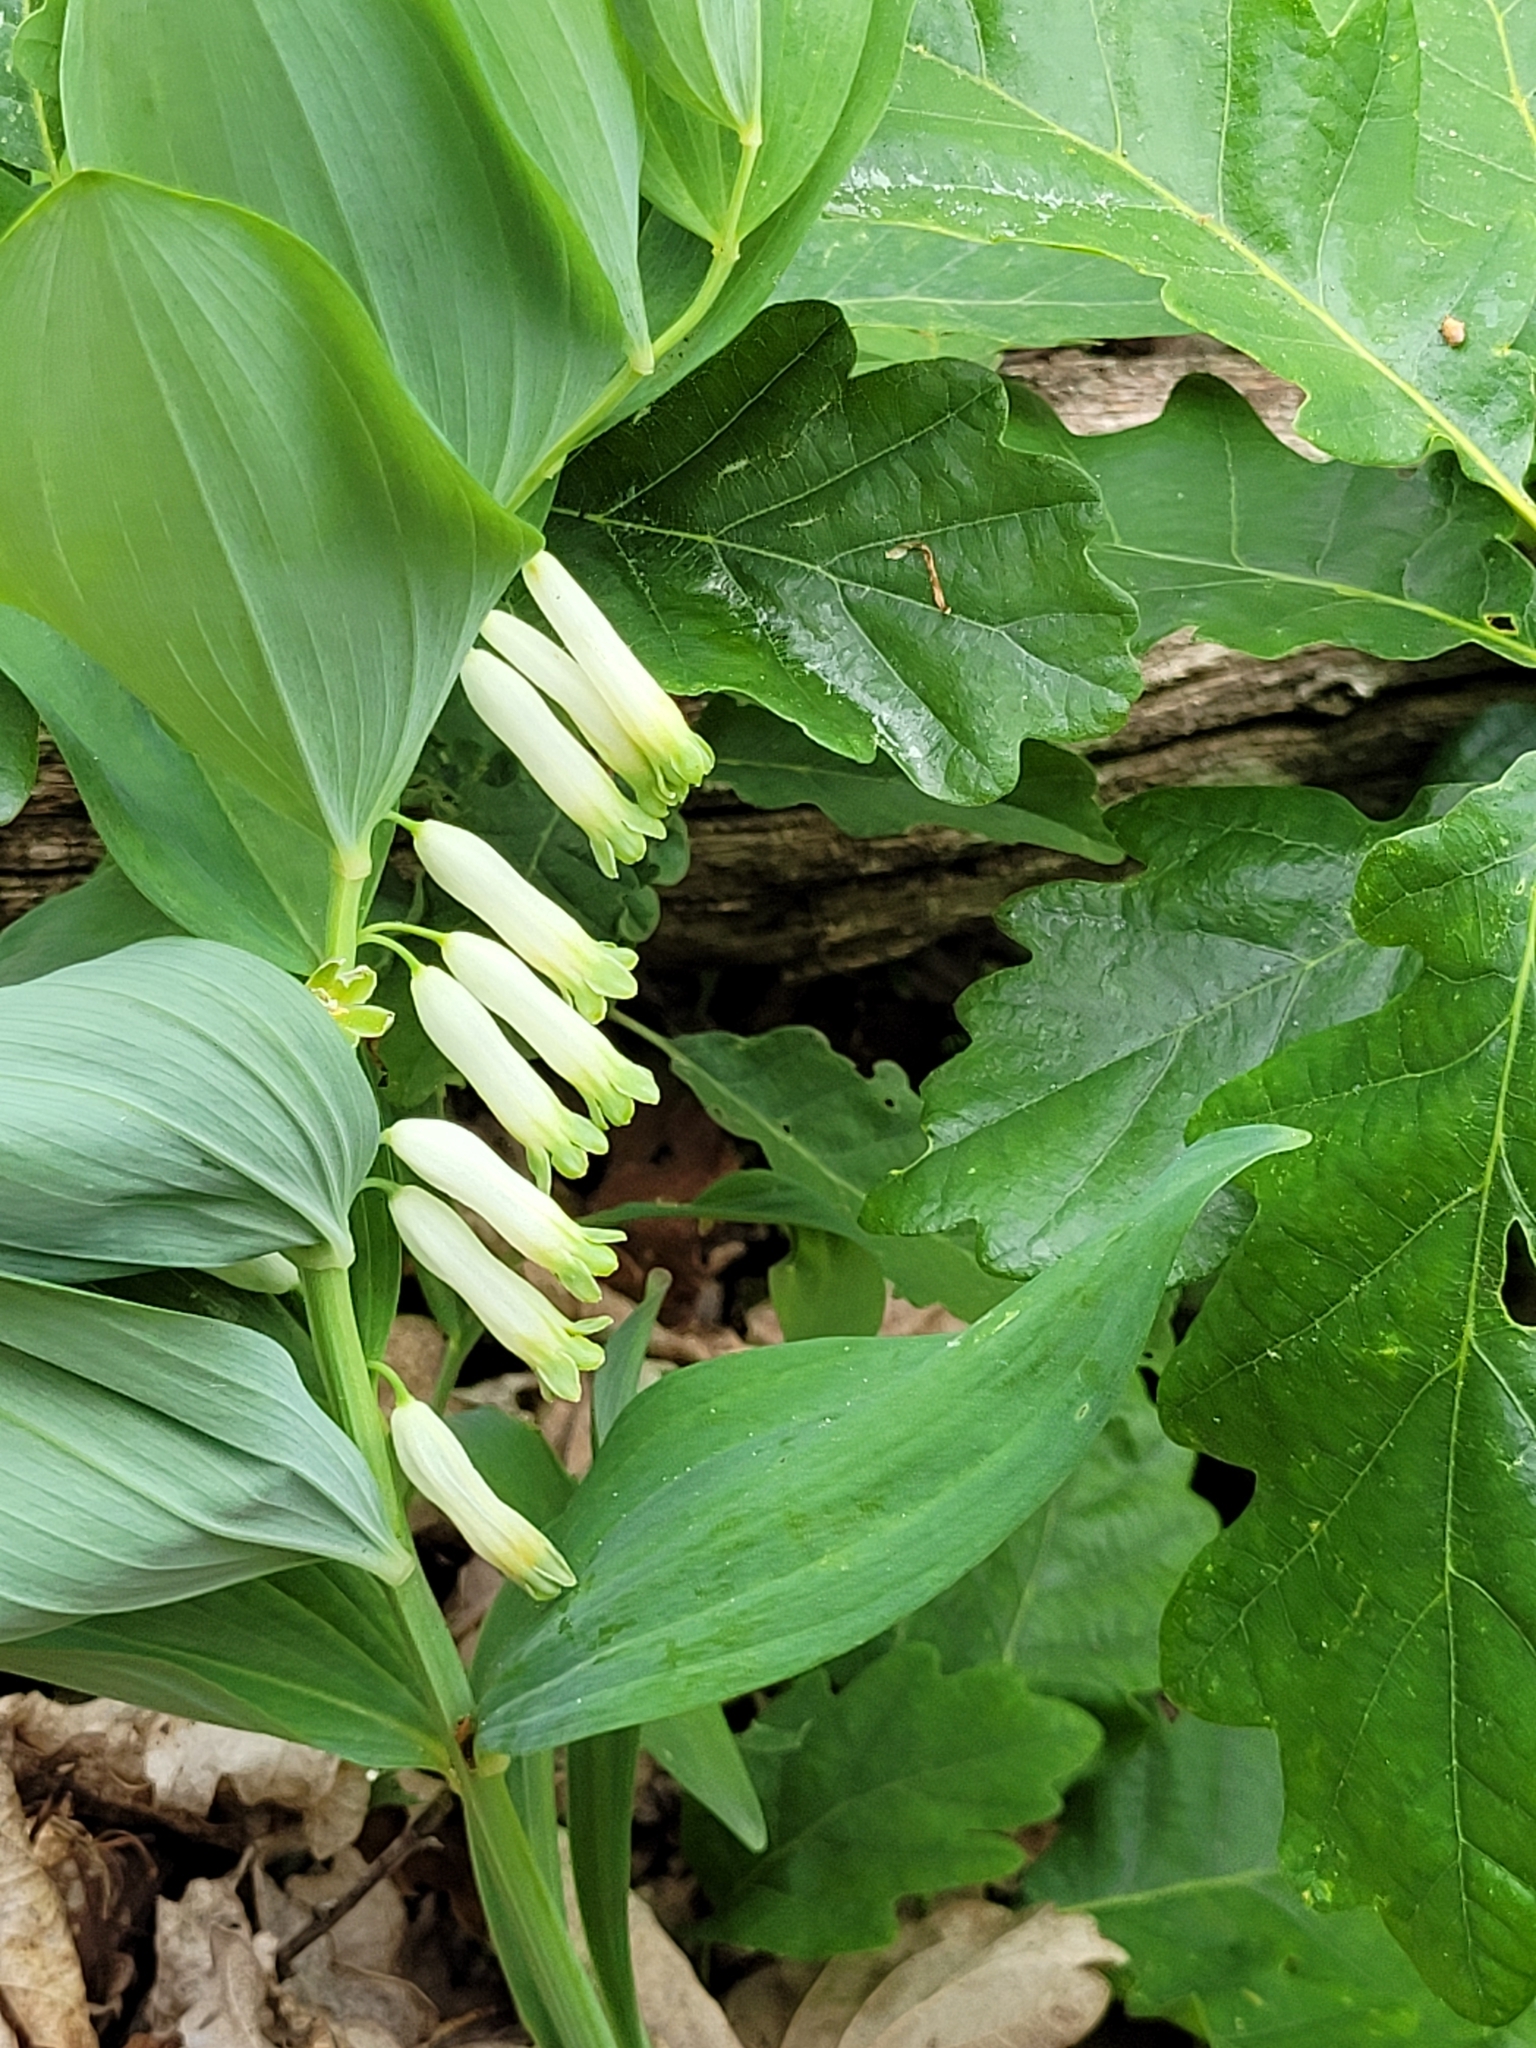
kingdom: Plantae
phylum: Tracheophyta
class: Liliopsida
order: Asparagales
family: Asparagaceae
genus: Polygonatum
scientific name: Polygonatum multiflorum
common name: Solomon's-seal
